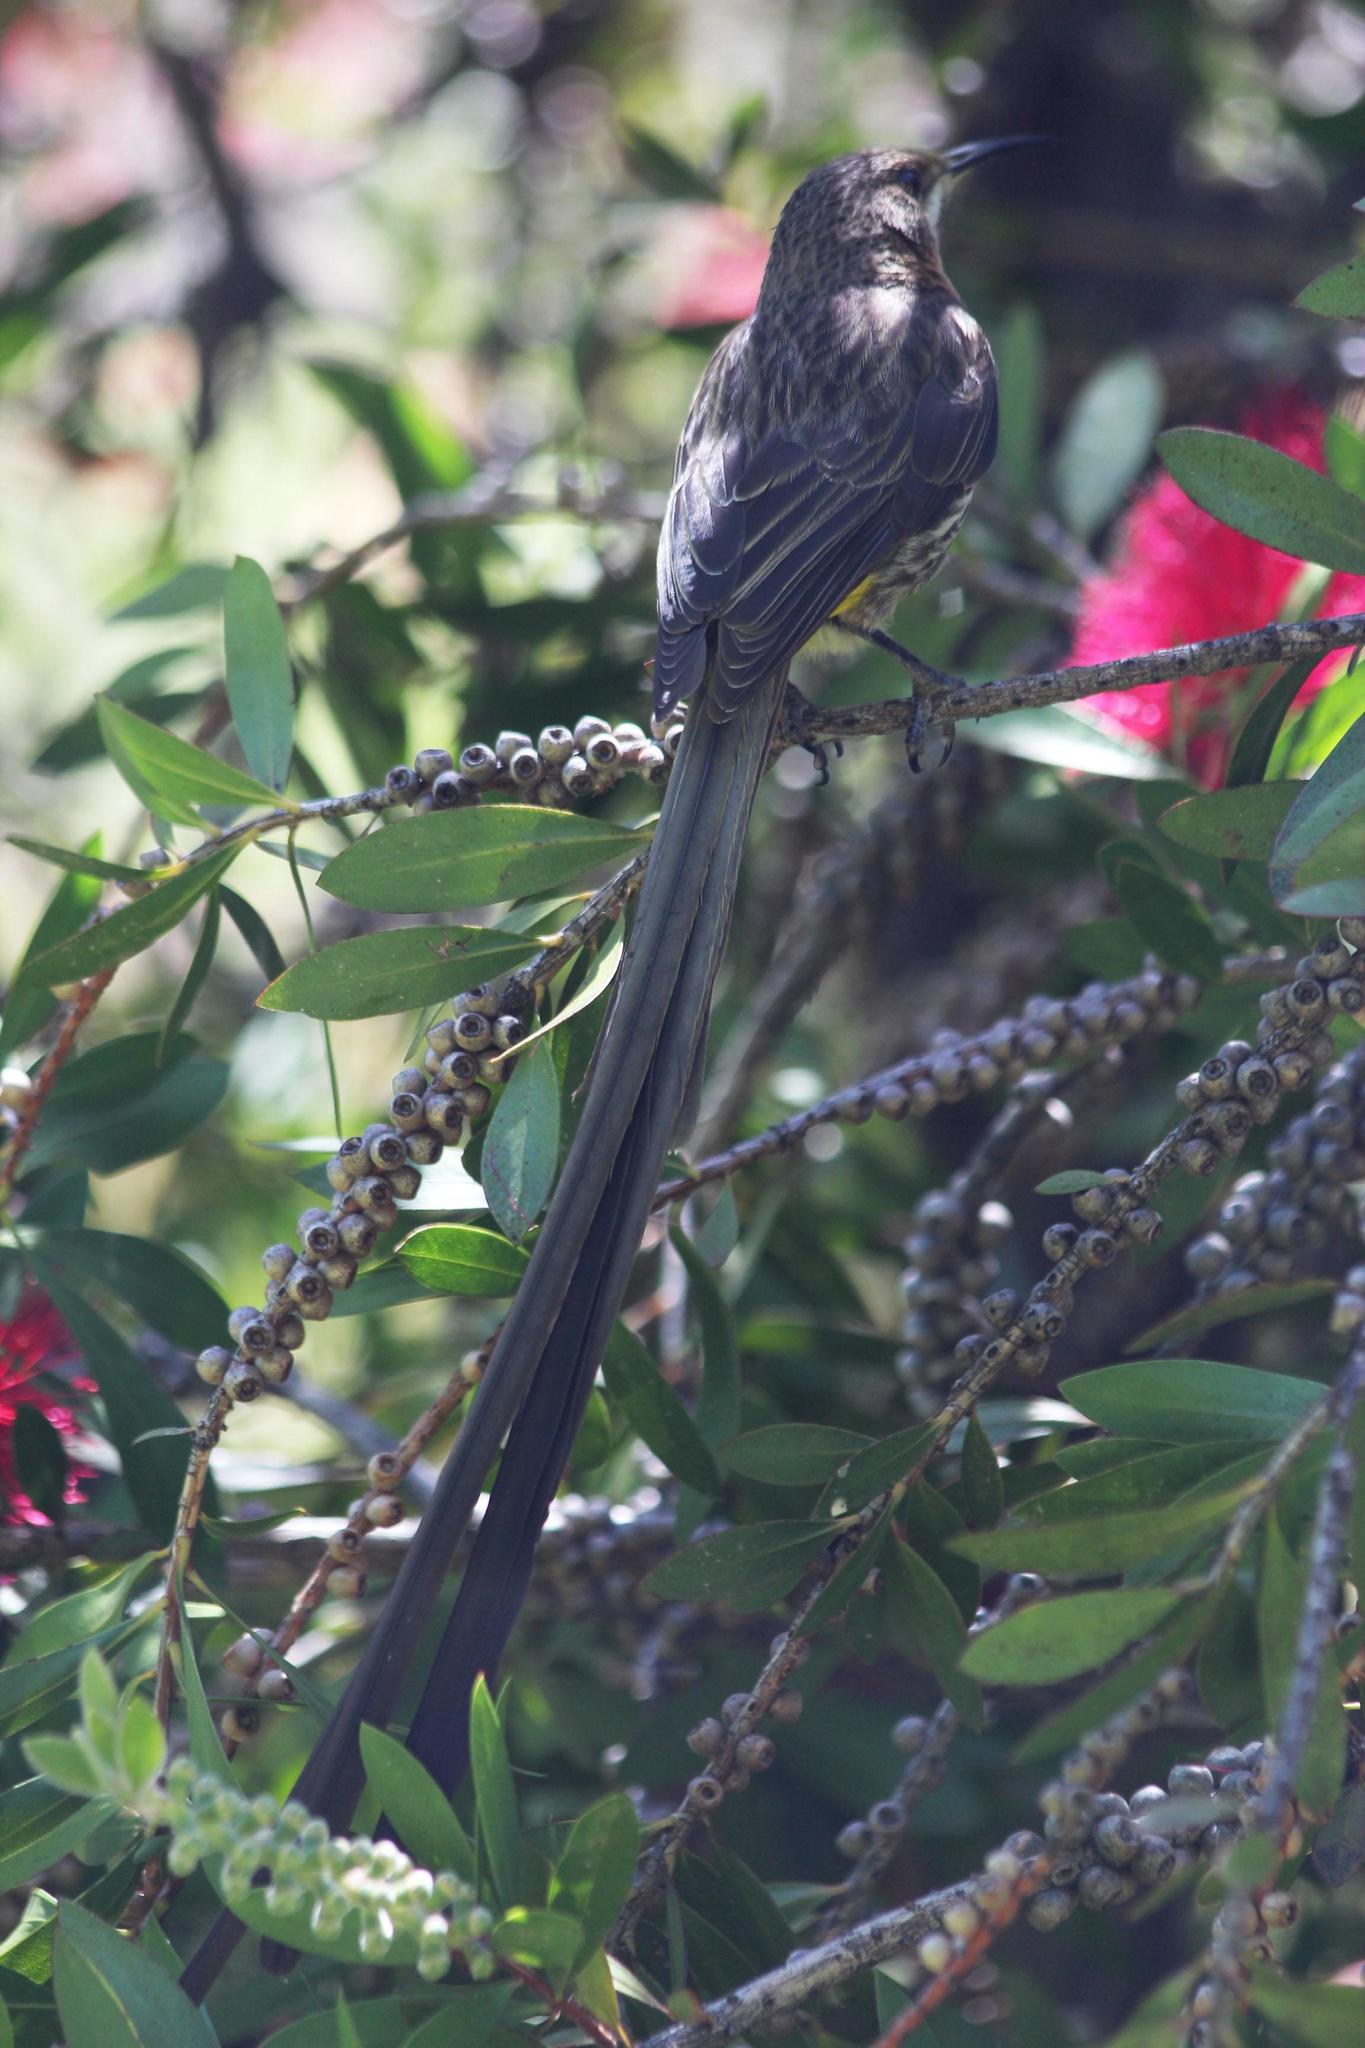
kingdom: Animalia
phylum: Chordata
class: Aves
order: Passeriformes
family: Promeropidae
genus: Promerops
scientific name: Promerops cafer
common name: Cape sugarbird
